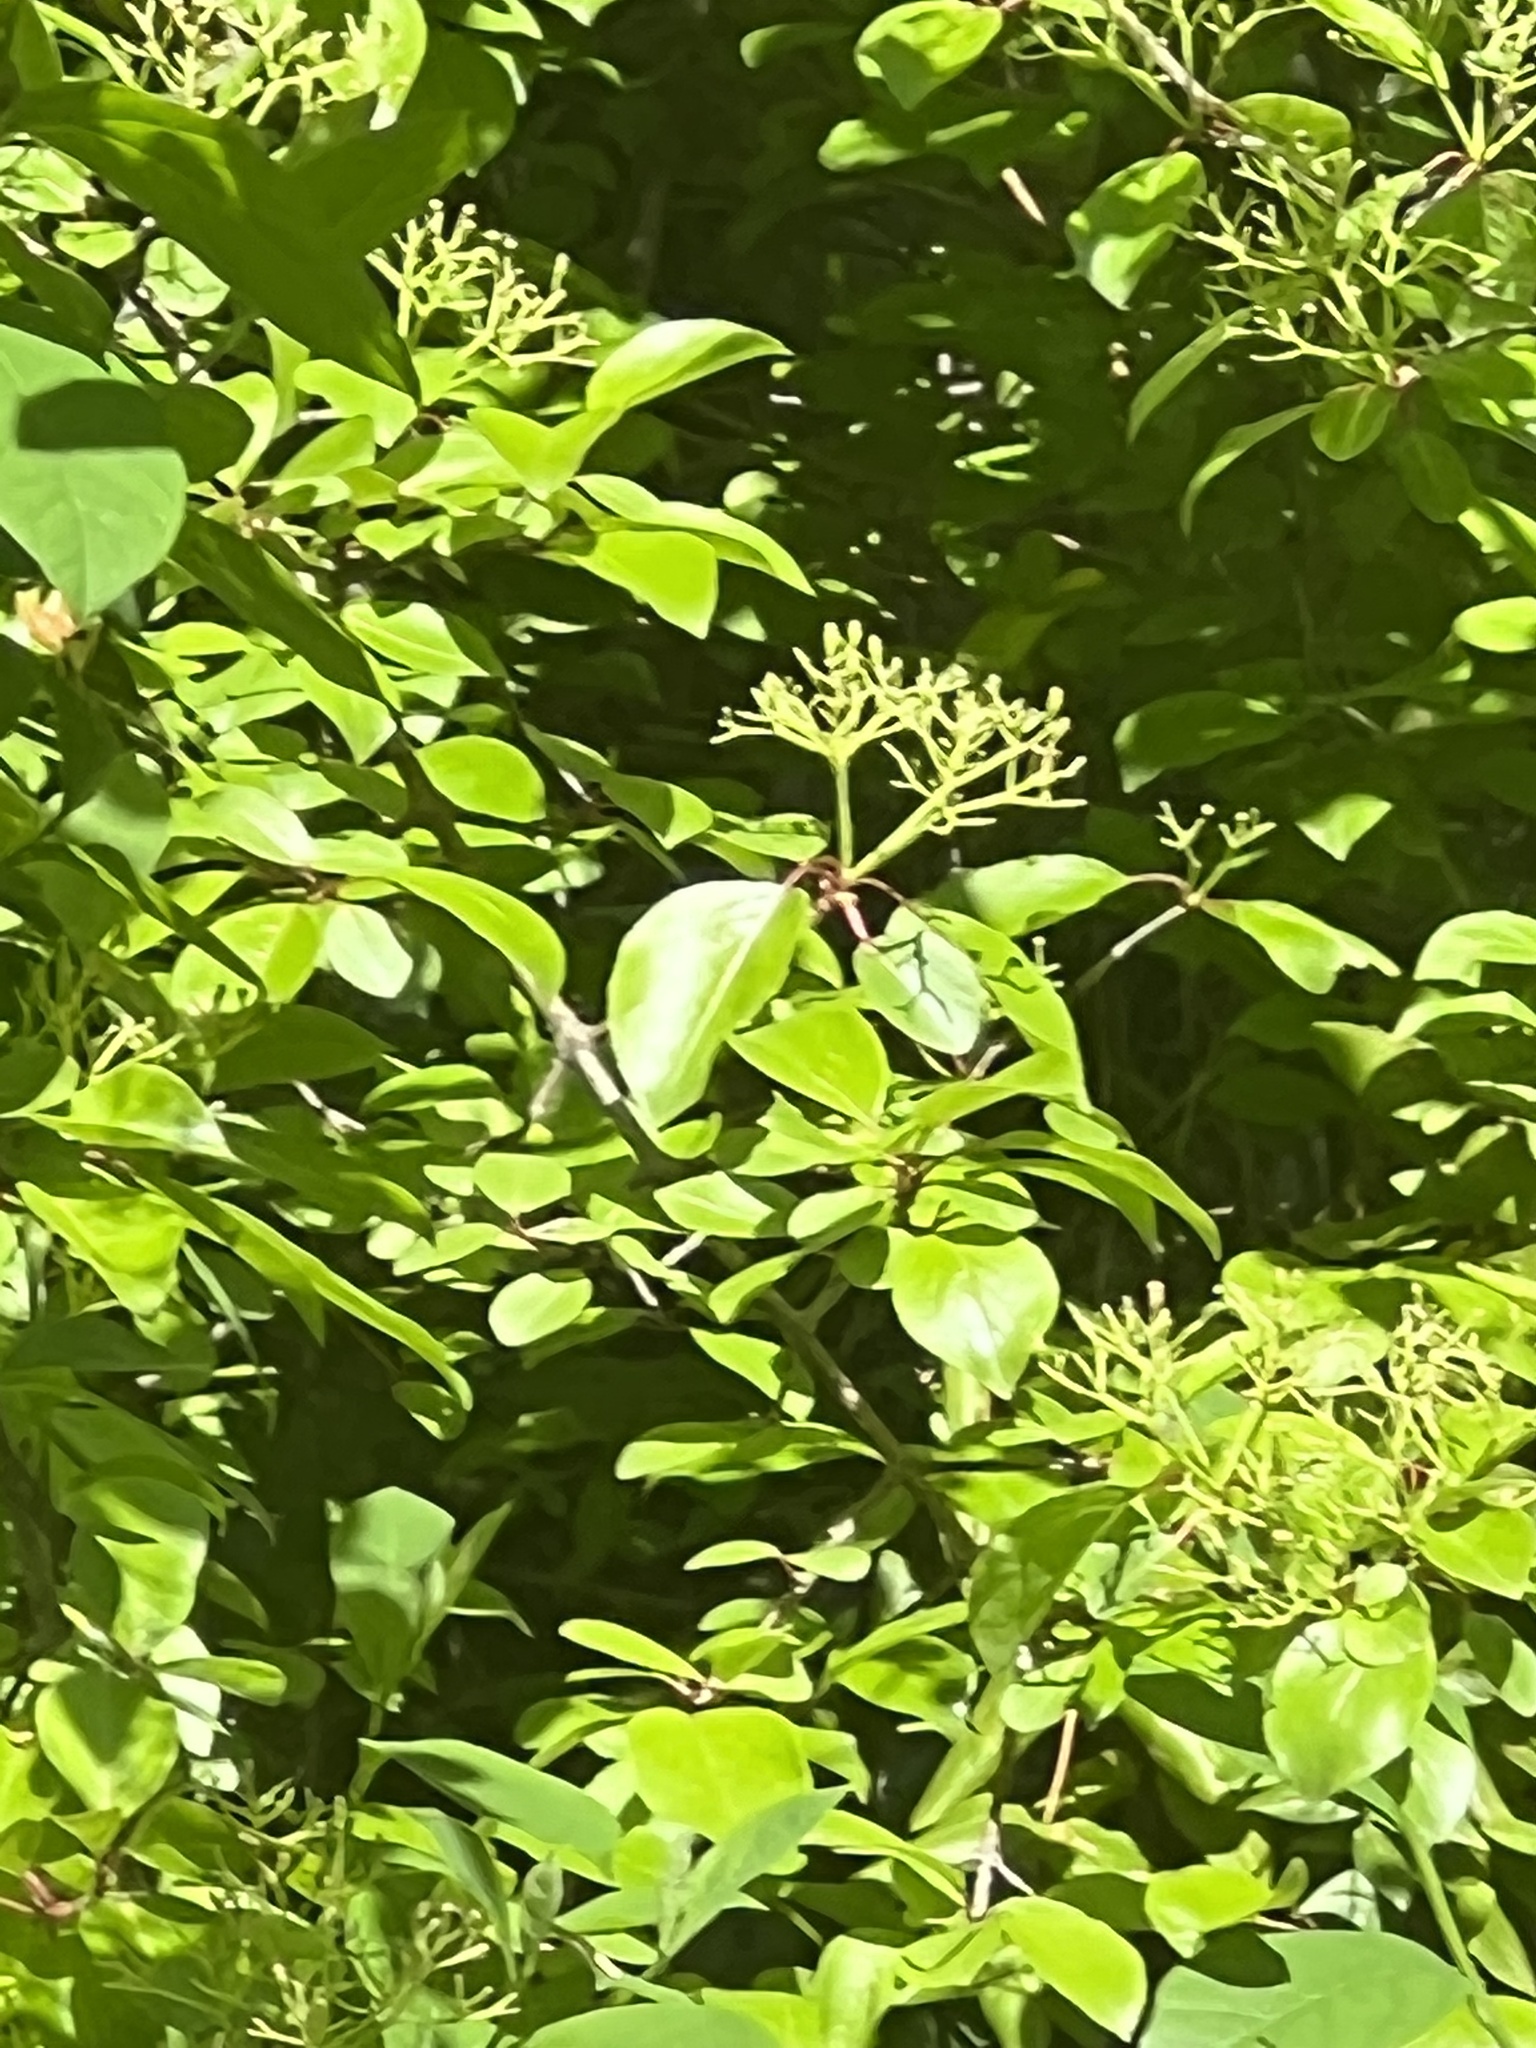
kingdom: Plantae
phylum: Tracheophyta
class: Magnoliopsida
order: Dipsacales
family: Viburnaceae
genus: Viburnum
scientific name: Viburnum prunifolium
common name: Black haw
